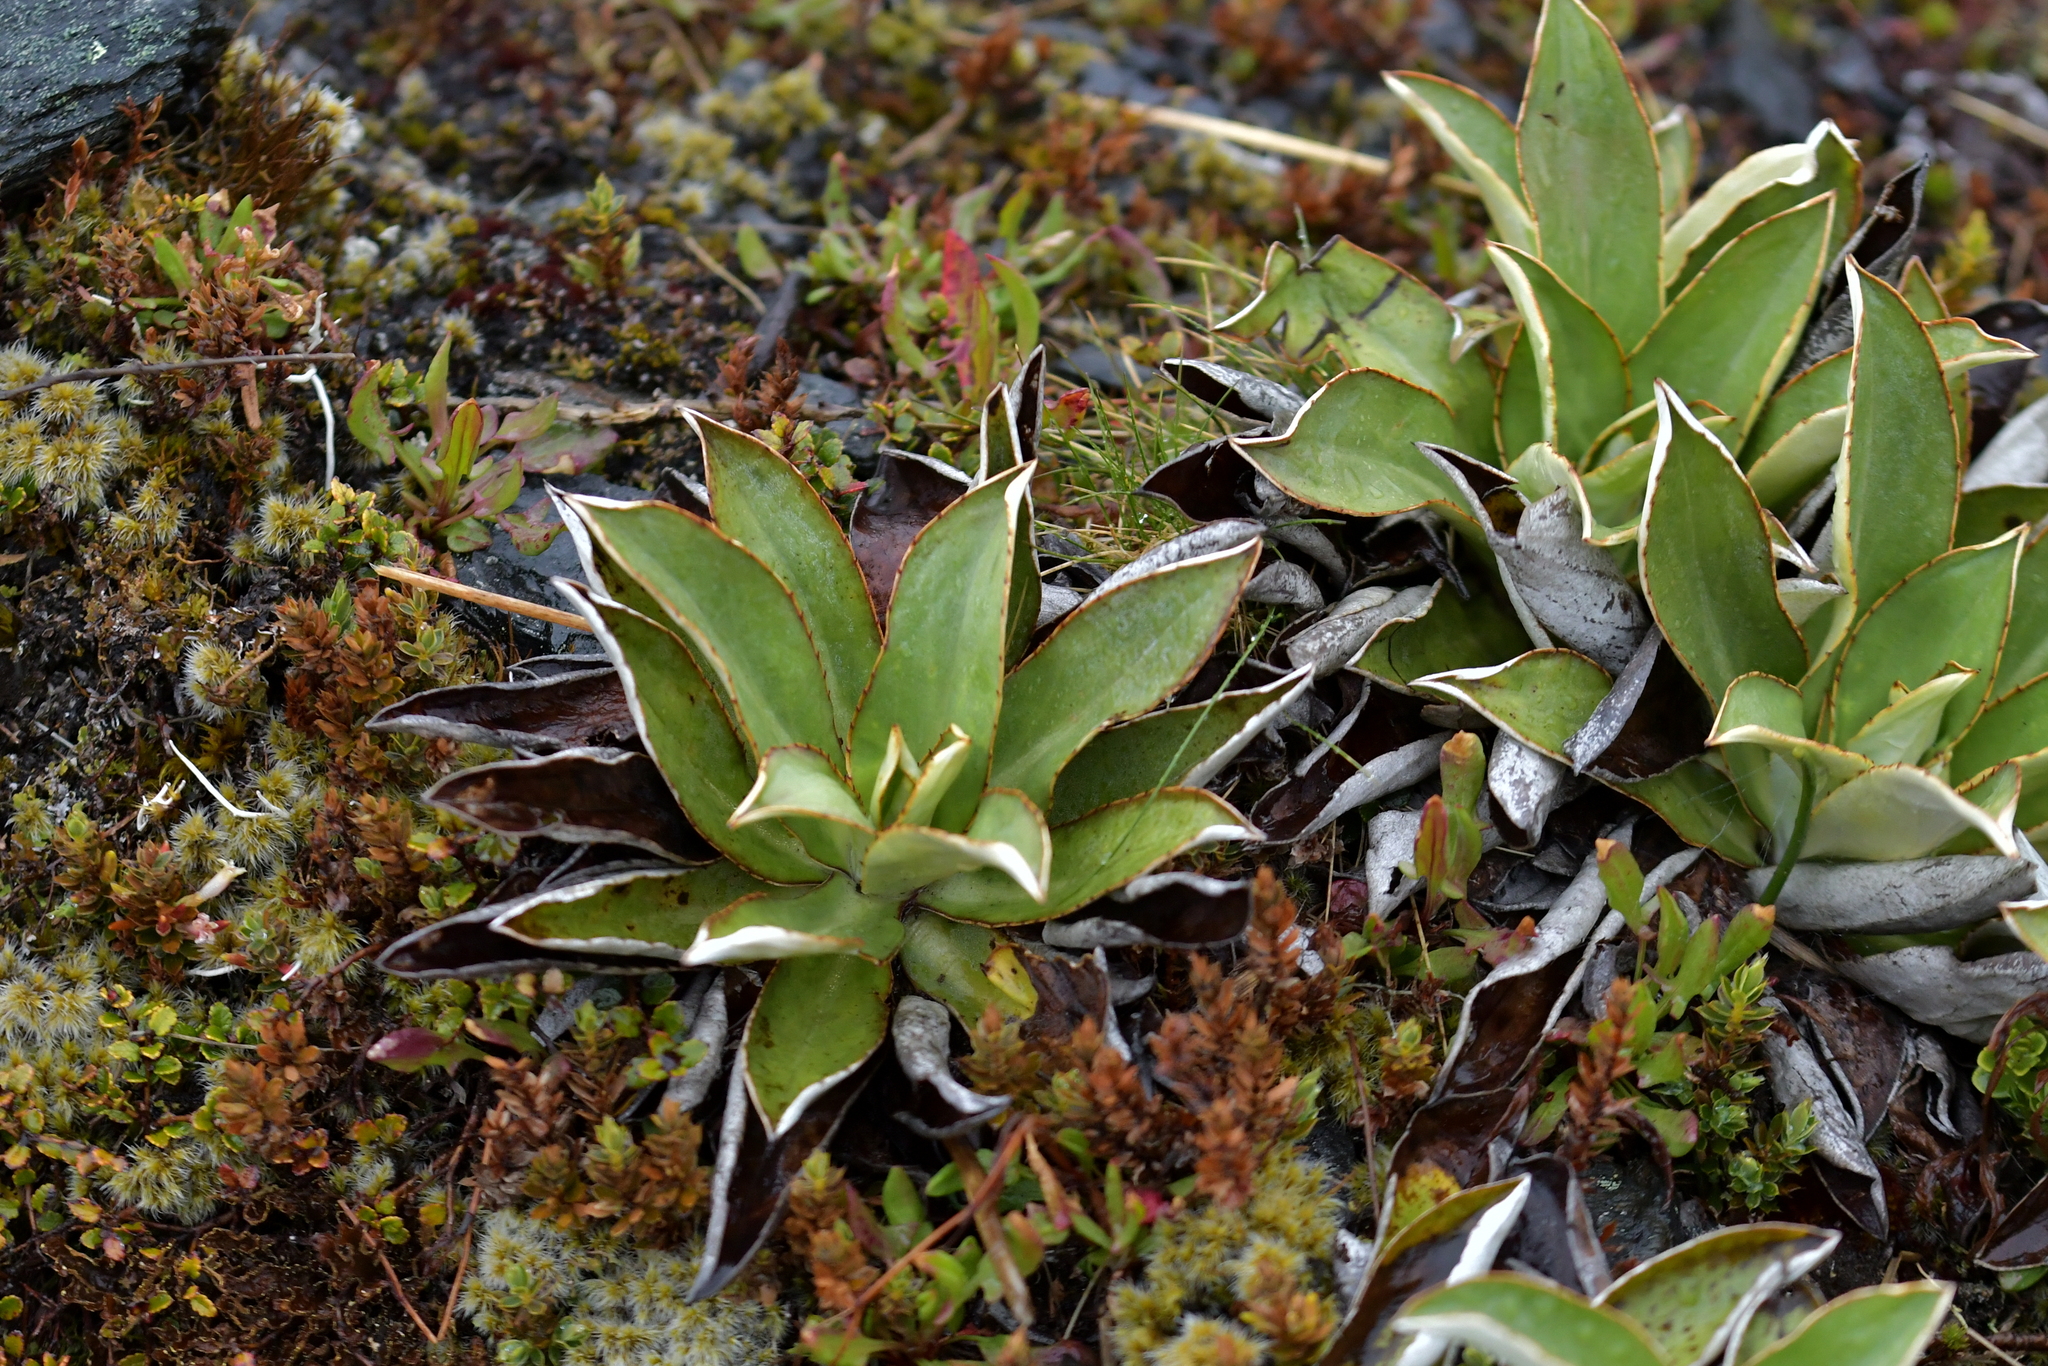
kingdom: Plantae
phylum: Tracheophyta
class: Magnoliopsida
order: Asterales
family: Asteraceae
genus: Celmisia
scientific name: Celmisia dallii
